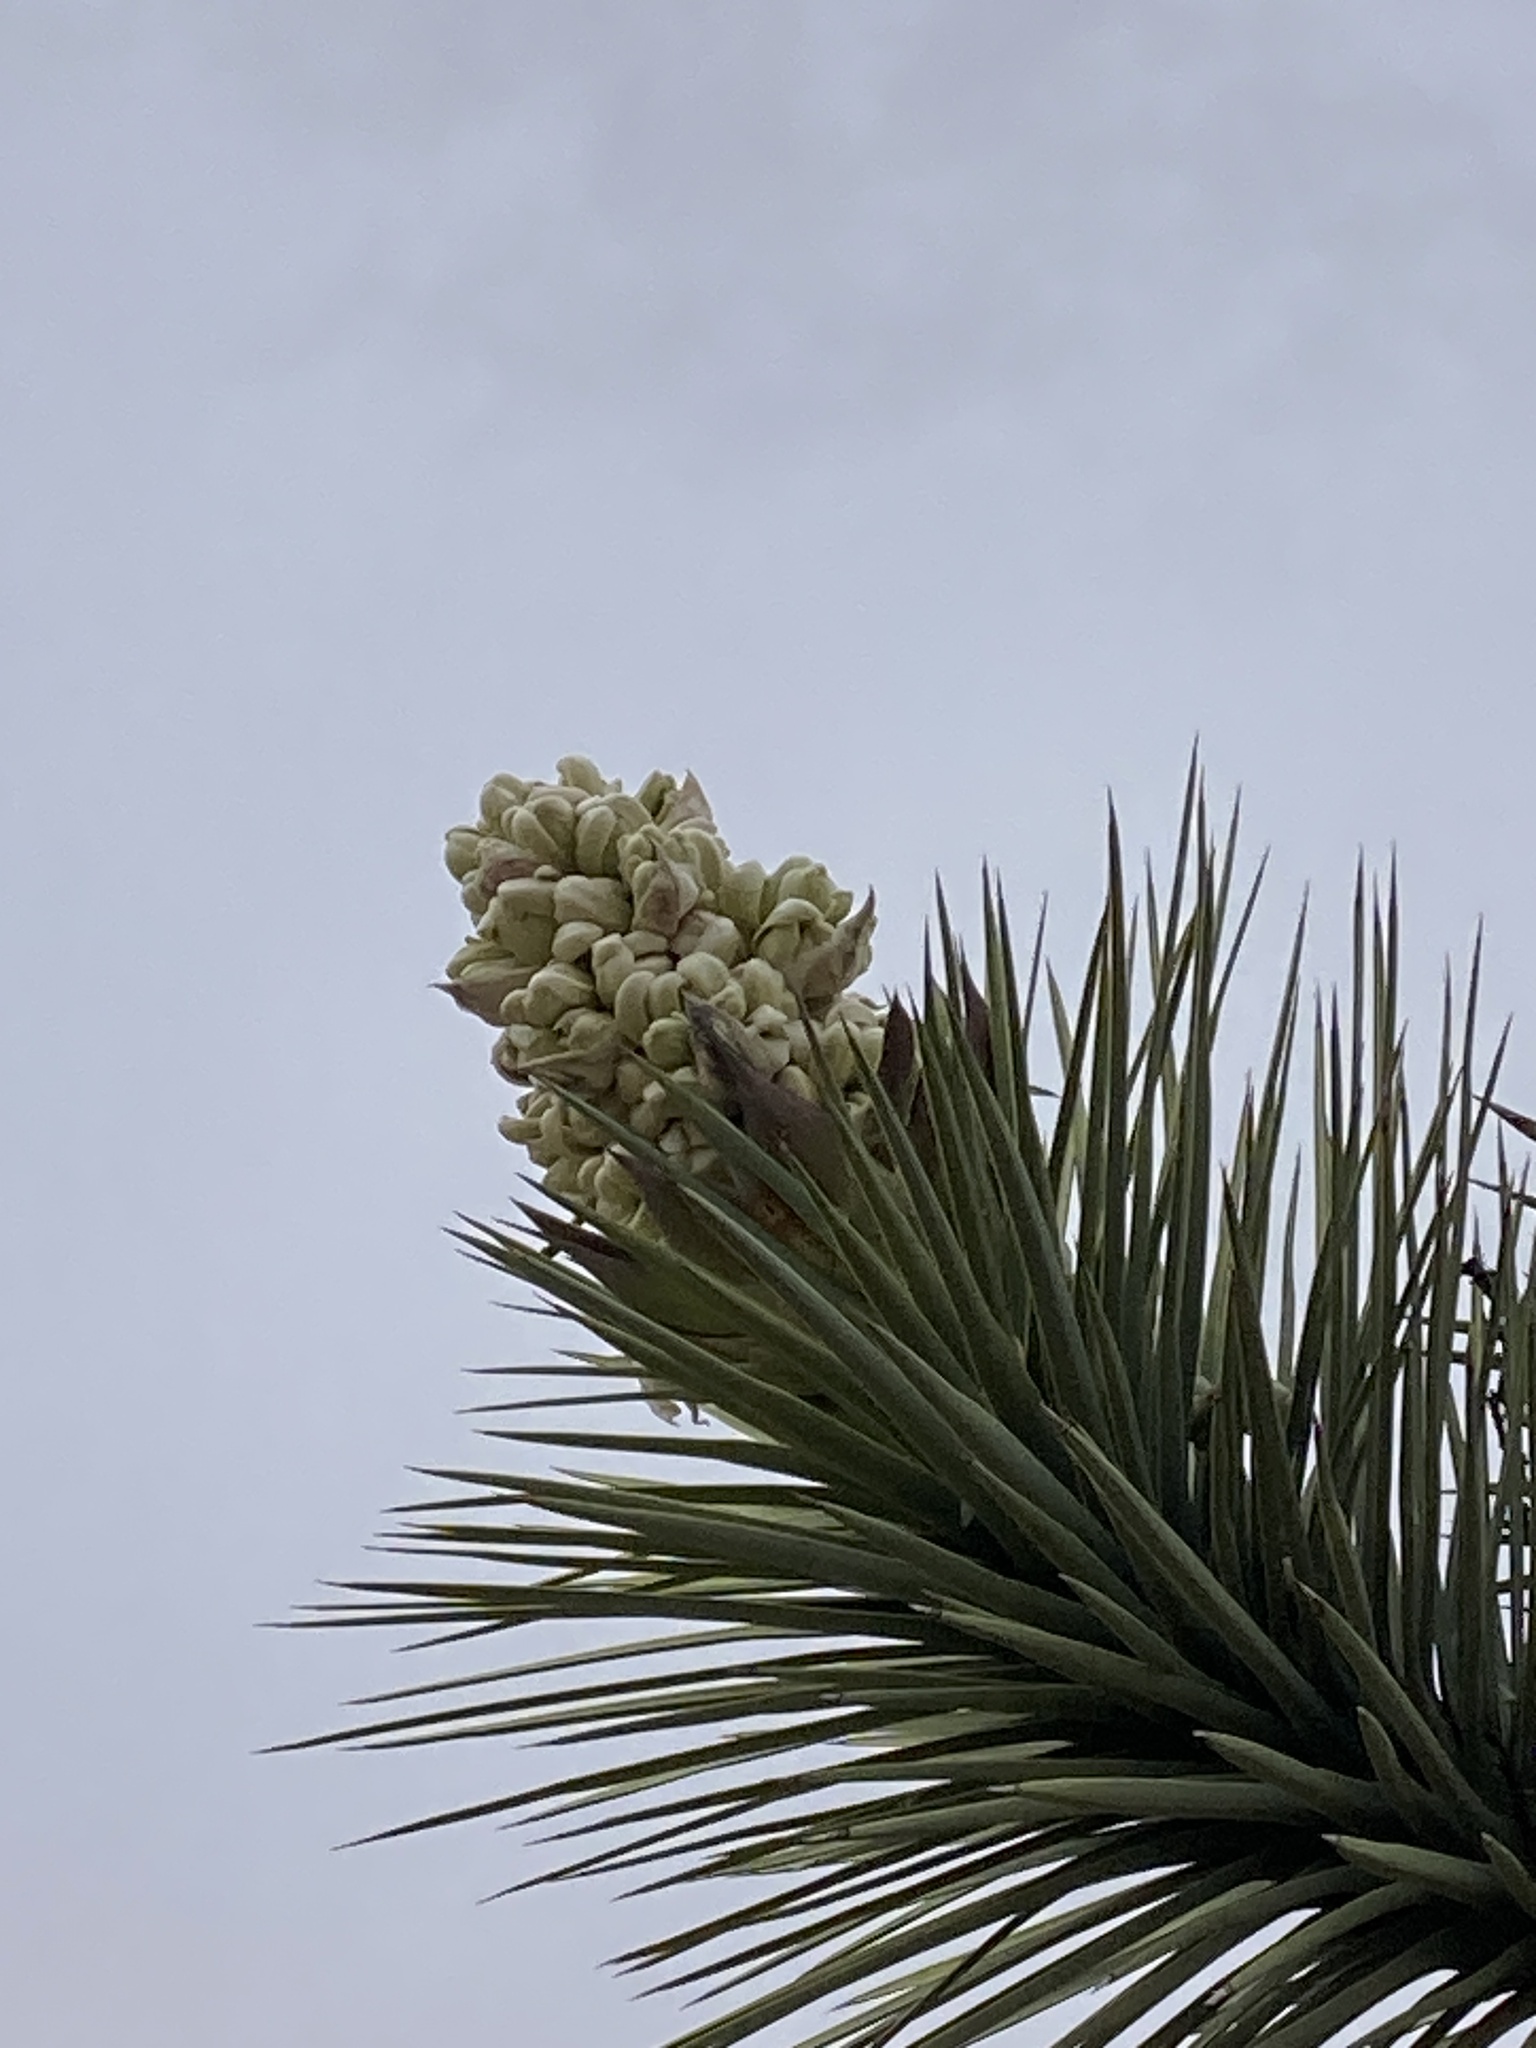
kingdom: Plantae
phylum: Tracheophyta
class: Liliopsida
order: Asparagales
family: Asparagaceae
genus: Yucca
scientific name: Yucca brevifolia
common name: Joshua tree
